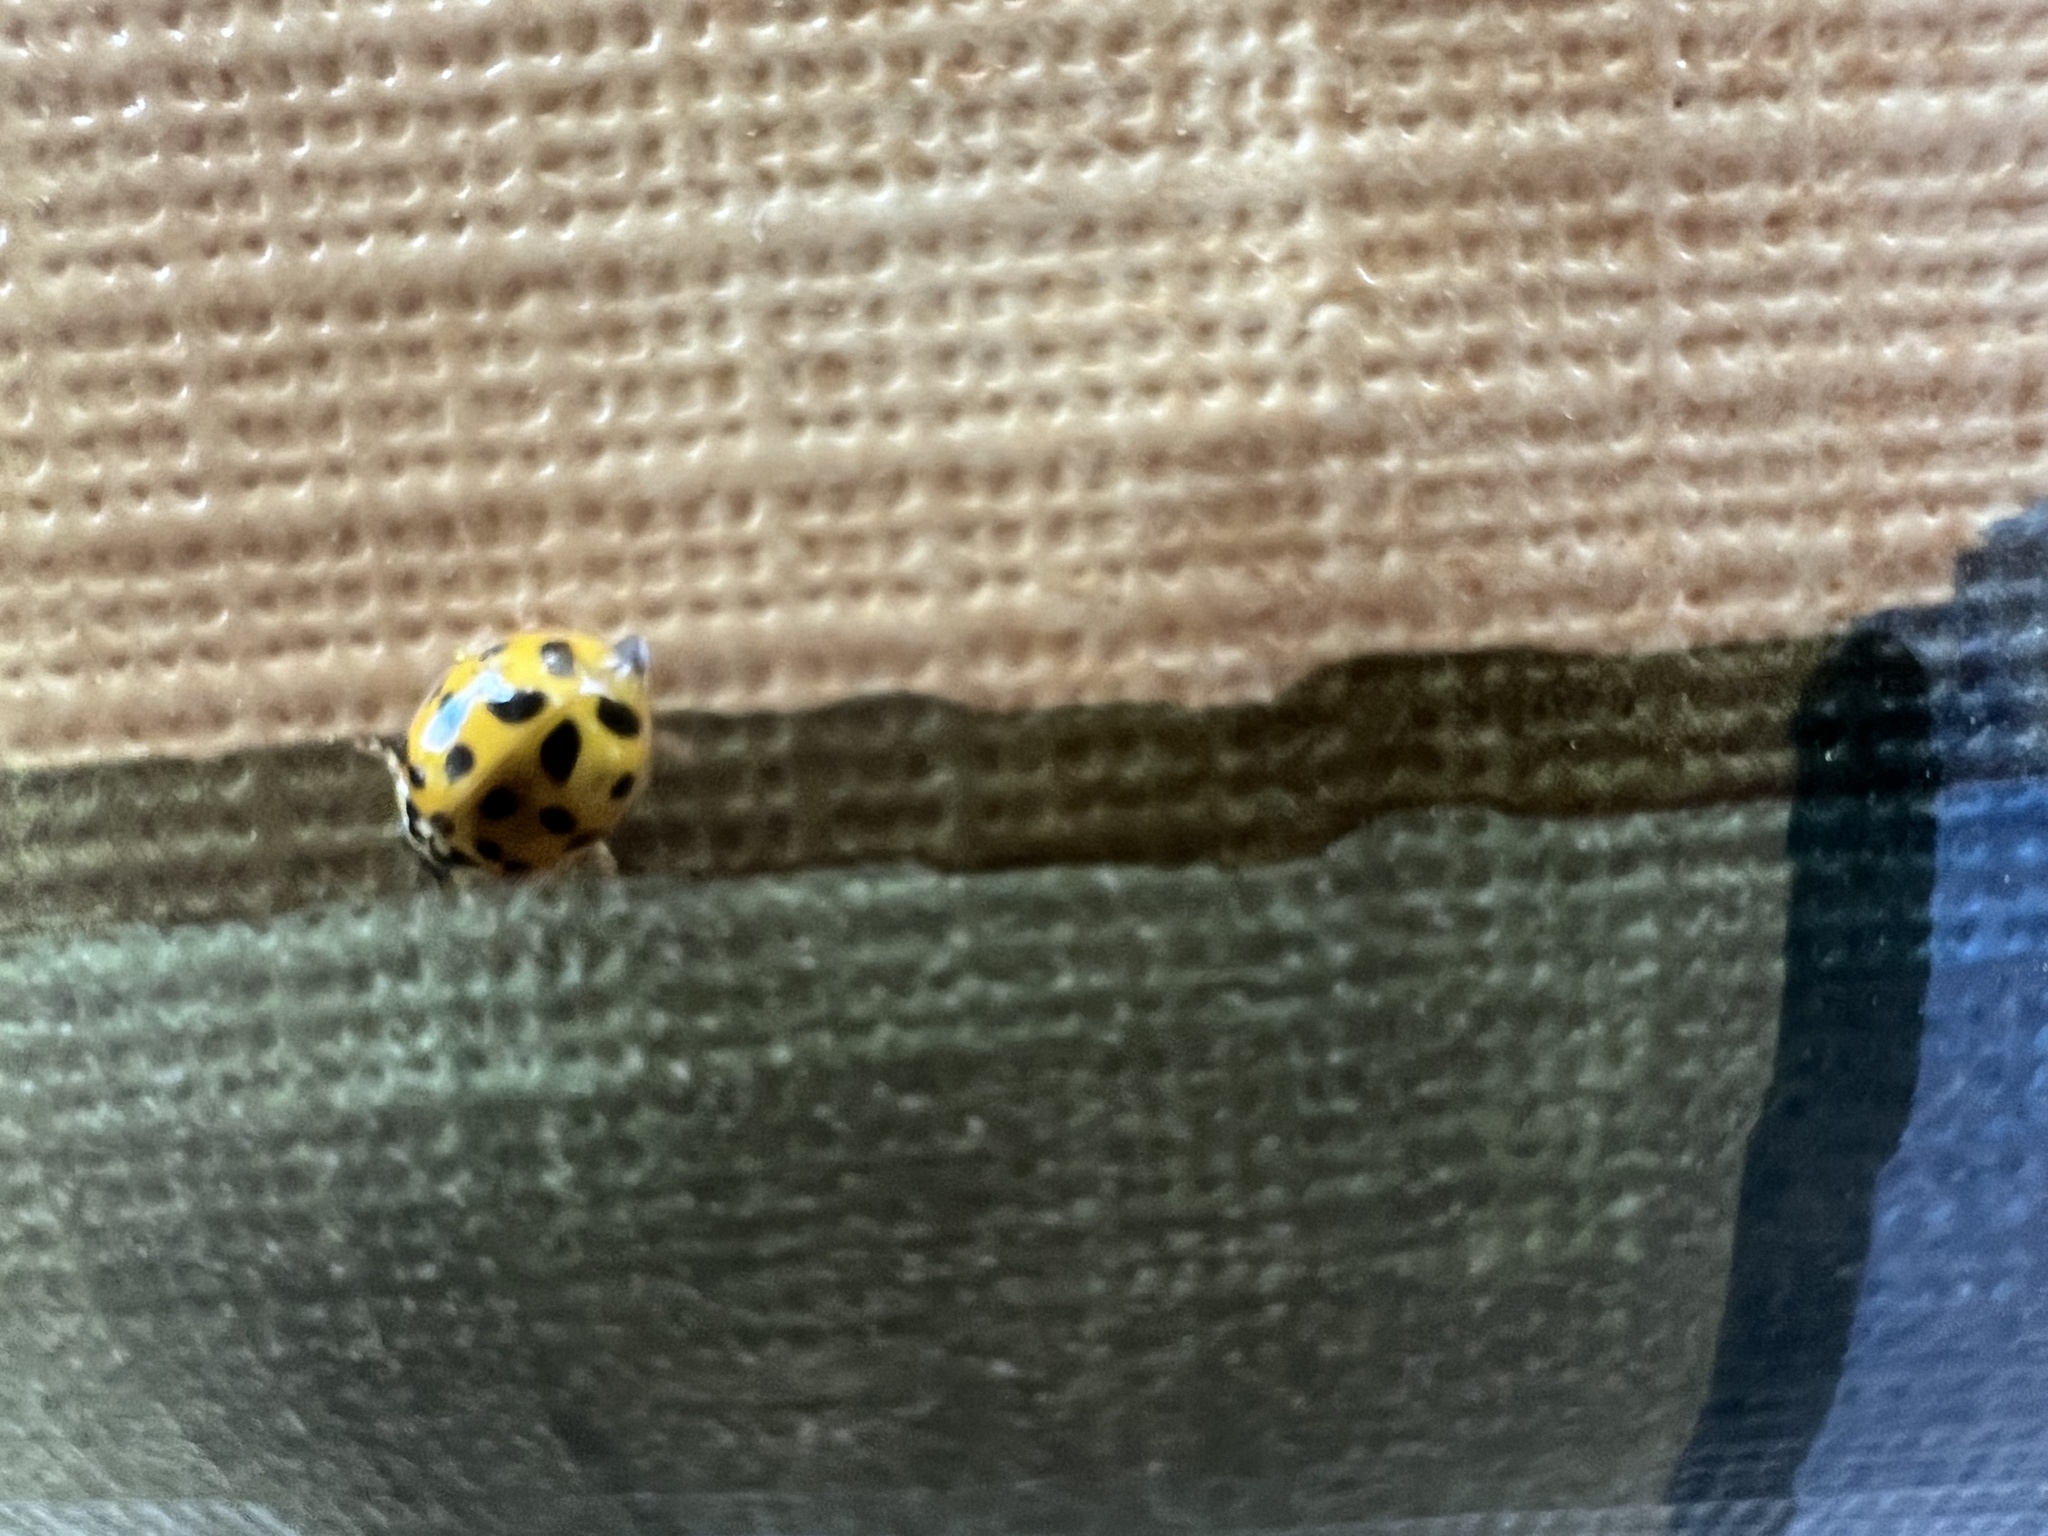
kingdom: Animalia
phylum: Arthropoda
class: Insecta
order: Coleoptera
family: Coccinellidae
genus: Harmonia
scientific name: Harmonia axyridis
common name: Harlequin ladybird
